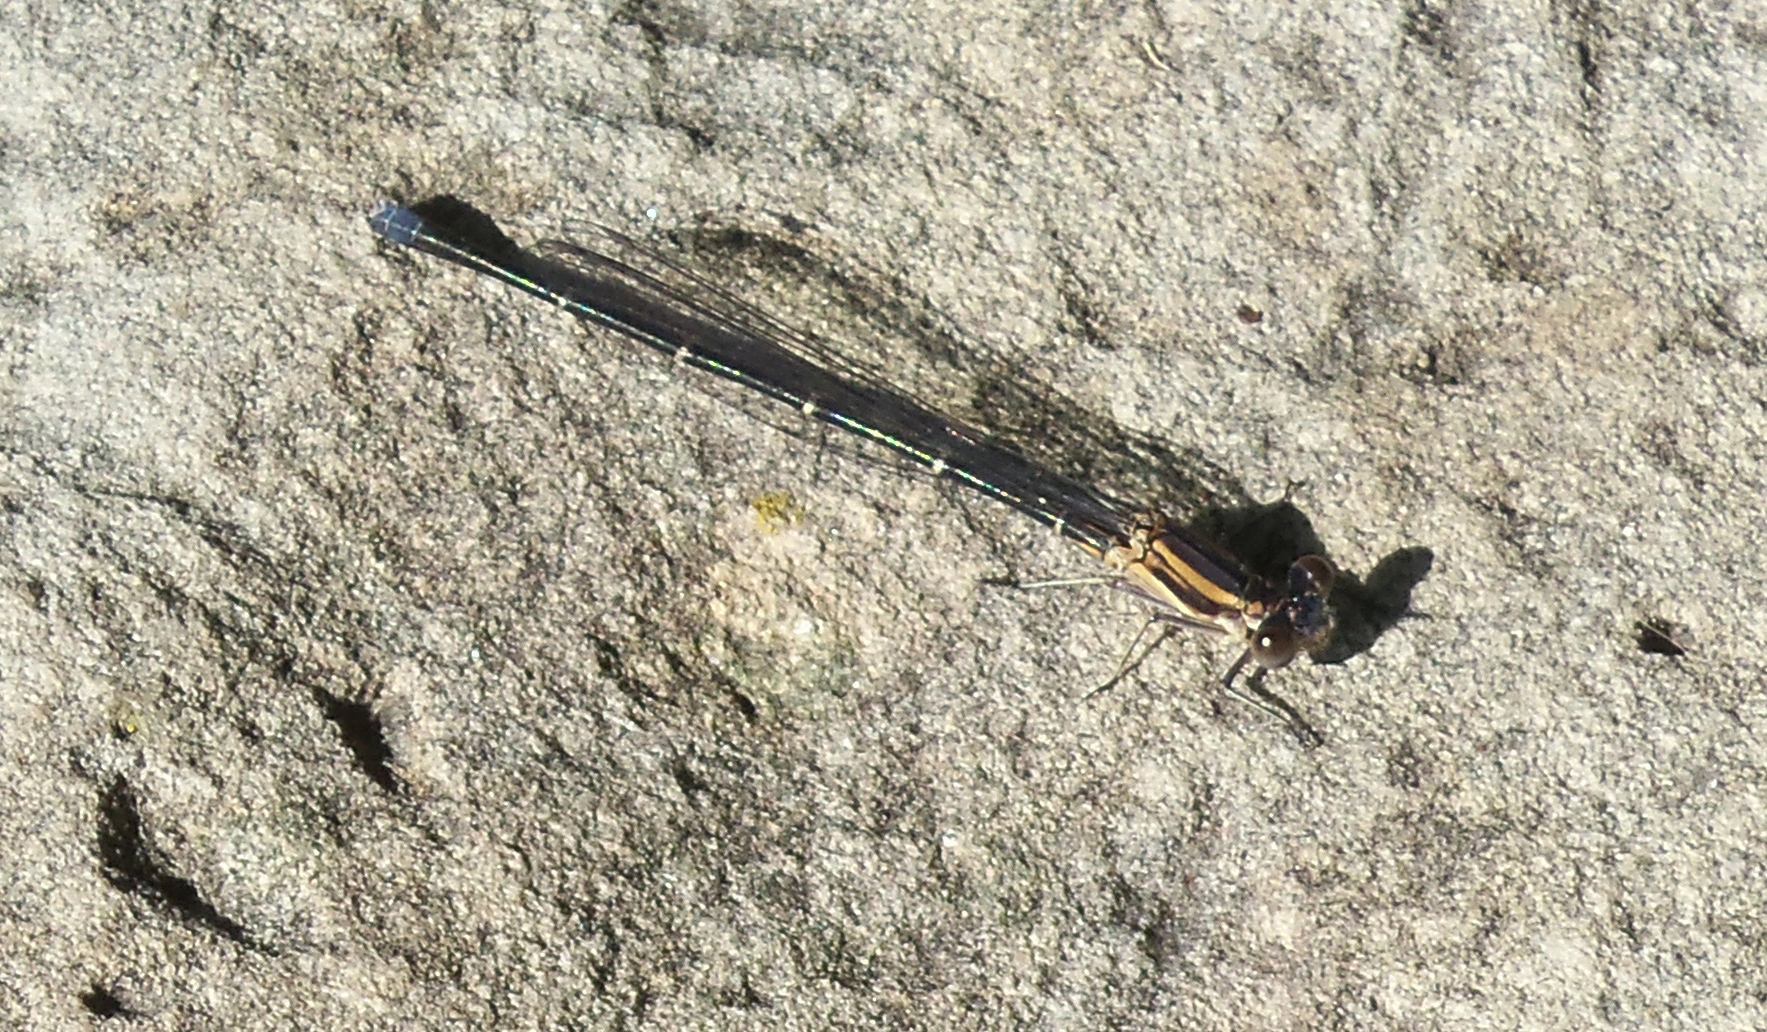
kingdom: Animalia
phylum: Arthropoda
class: Insecta
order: Odonata
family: Coenagrionidae
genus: Argia
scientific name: Argia moesta
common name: Powdered dancer
